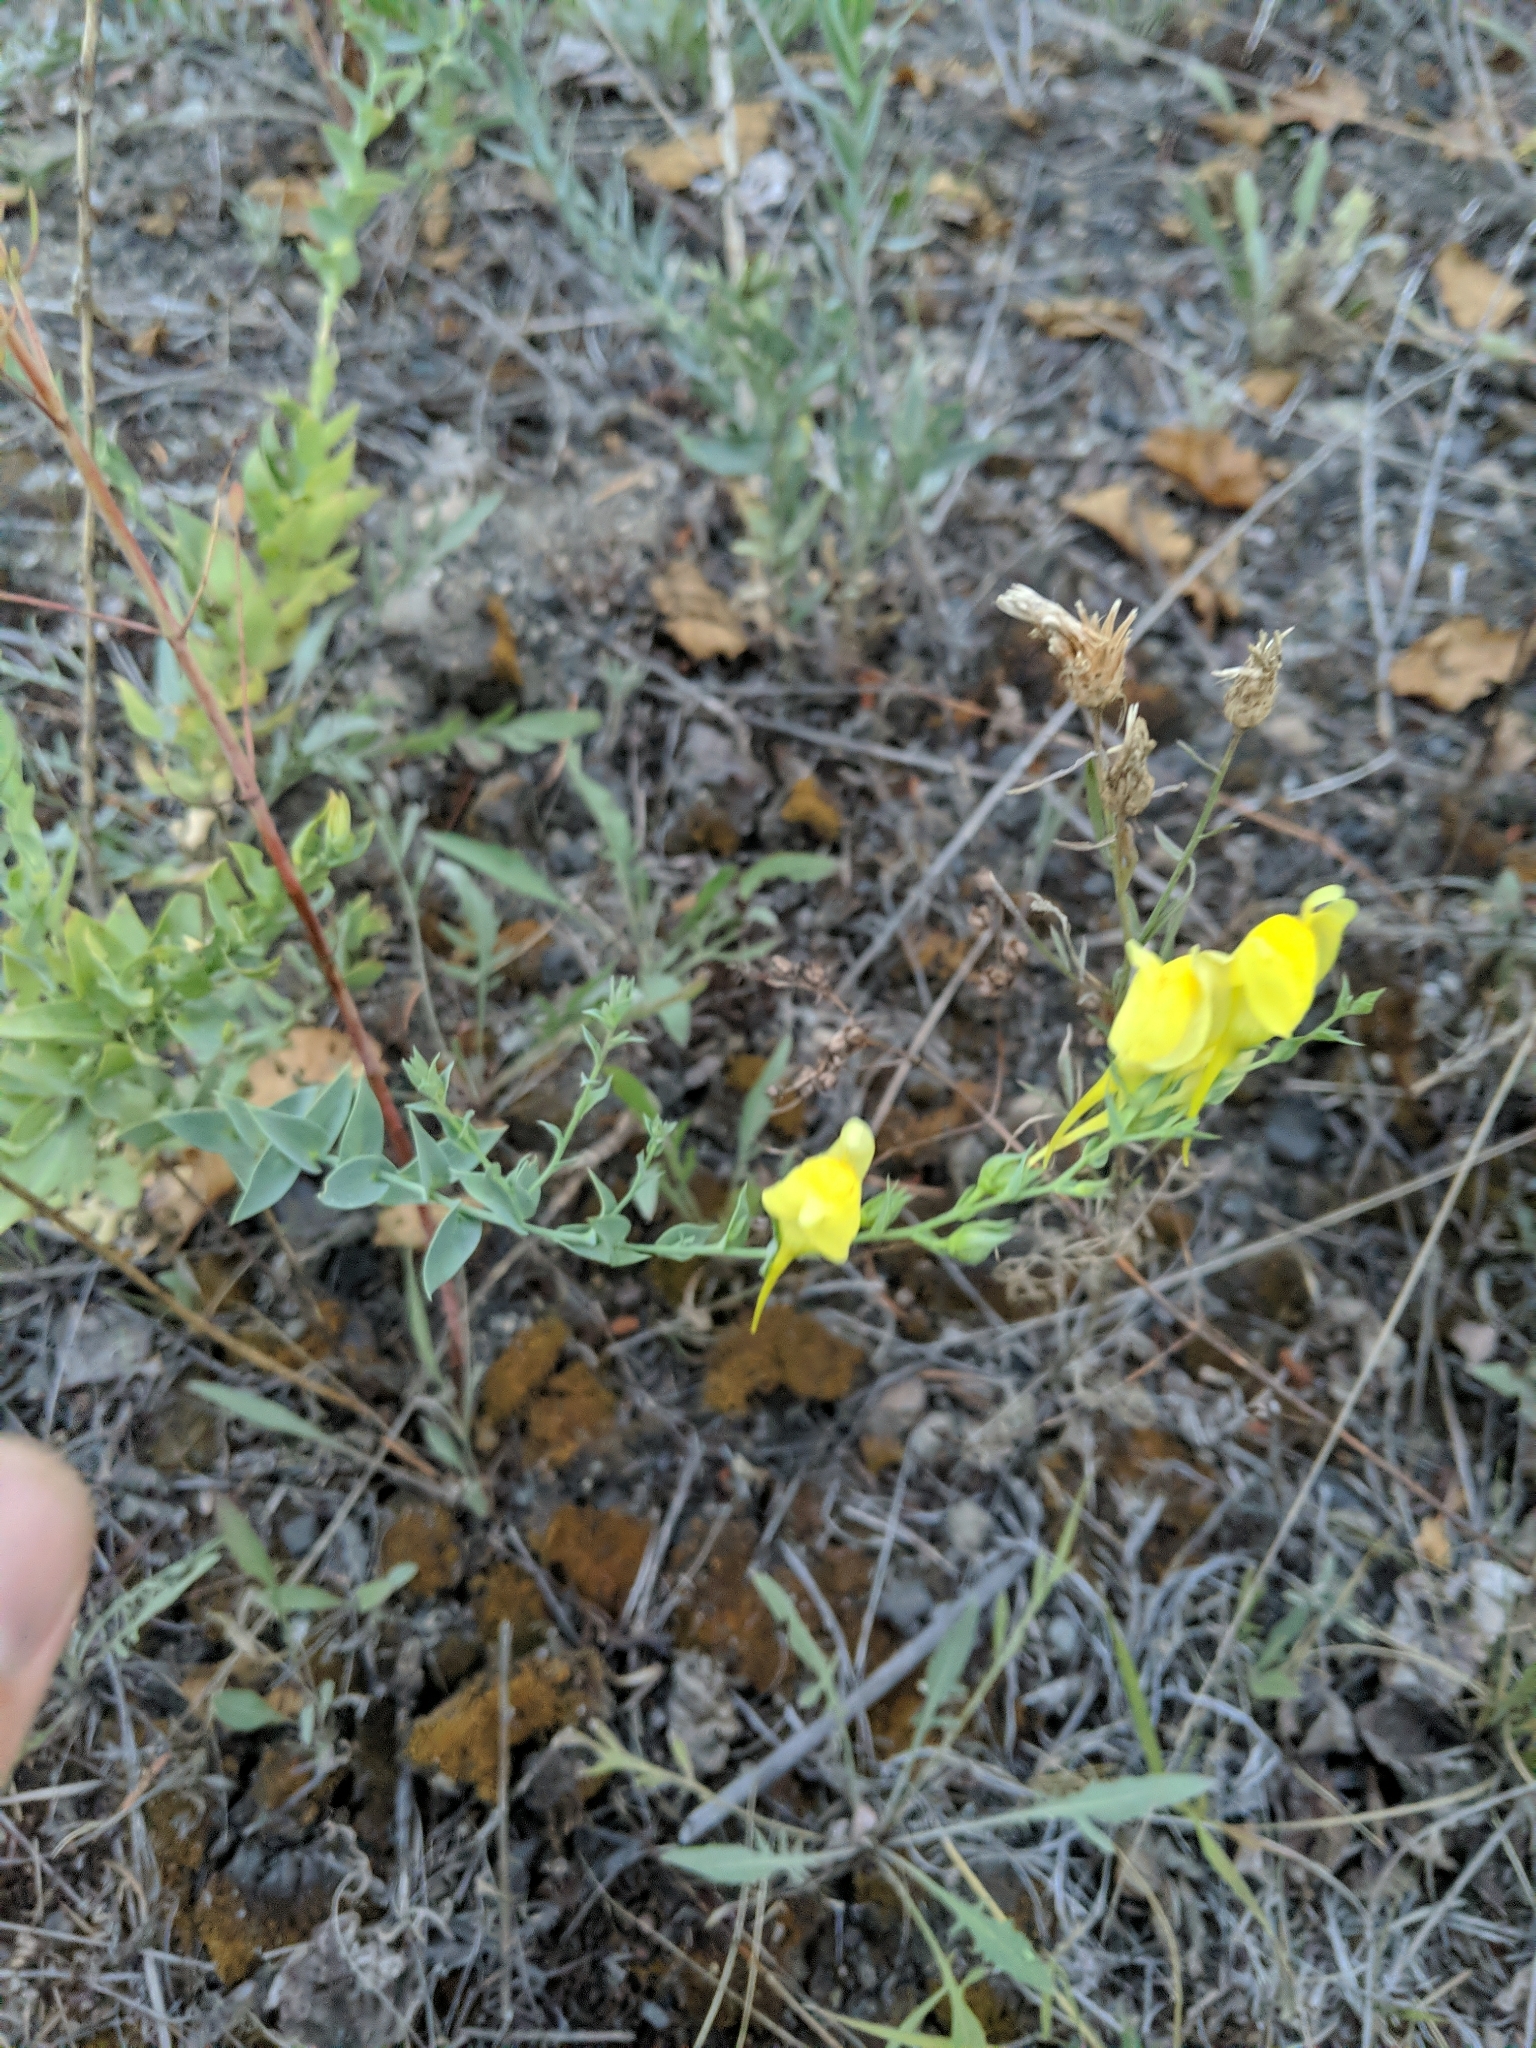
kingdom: Plantae
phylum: Tracheophyta
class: Magnoliopsida
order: Lamiales
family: Plantaginaceae
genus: Linaria
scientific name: Linaria dalmatica
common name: Dalmatian toadflax
